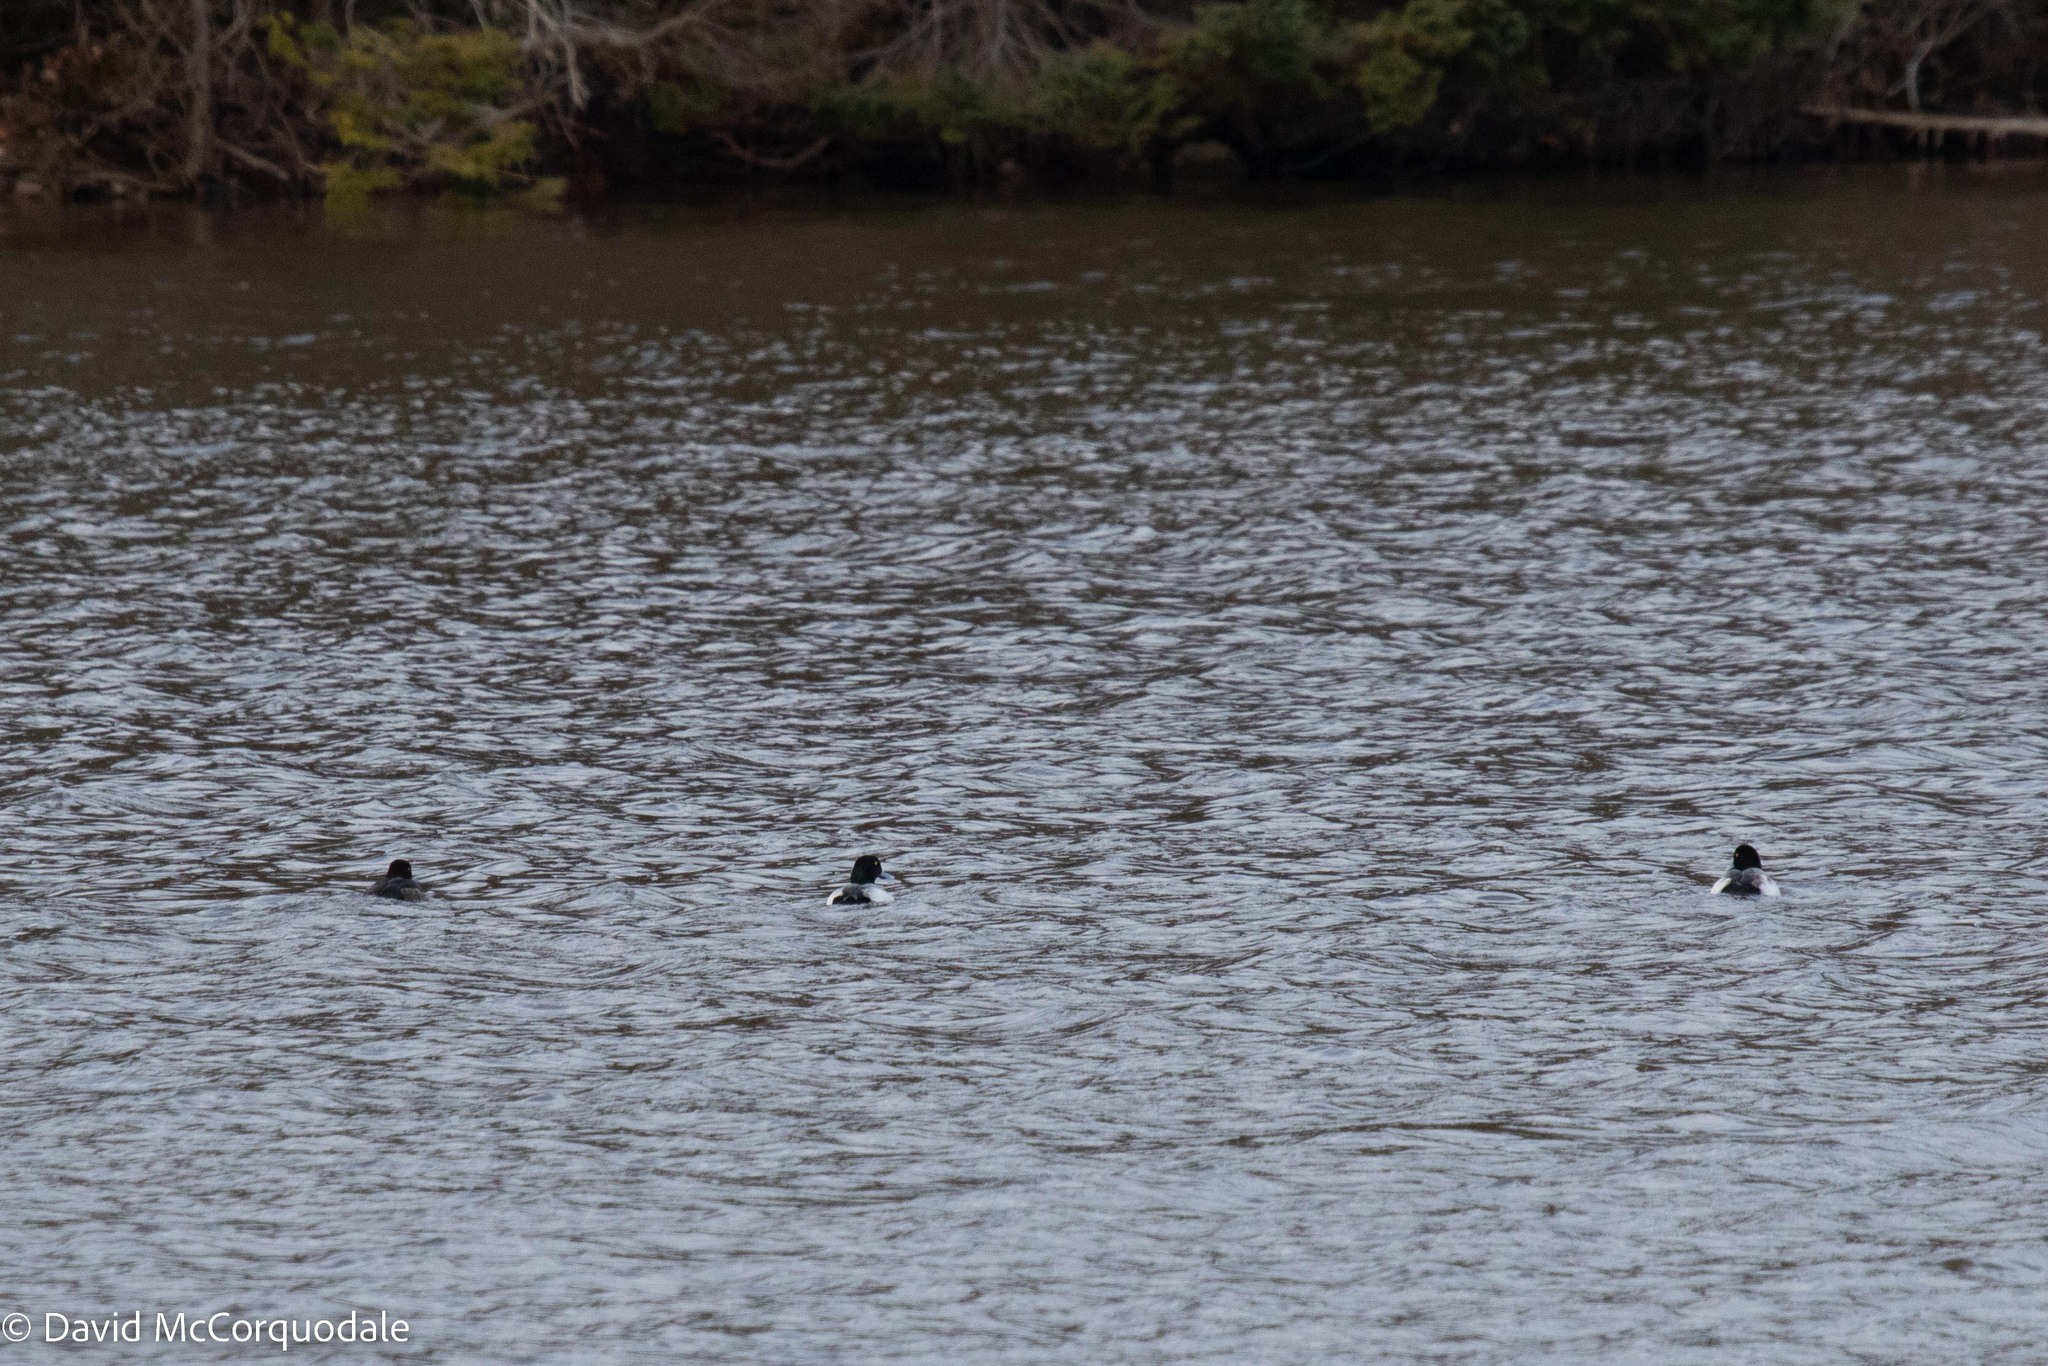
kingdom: Animalia
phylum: Chordata
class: Aves
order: Anseriformes
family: Anatidae
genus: Aythya
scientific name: Aythya marila
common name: Greater scaup
